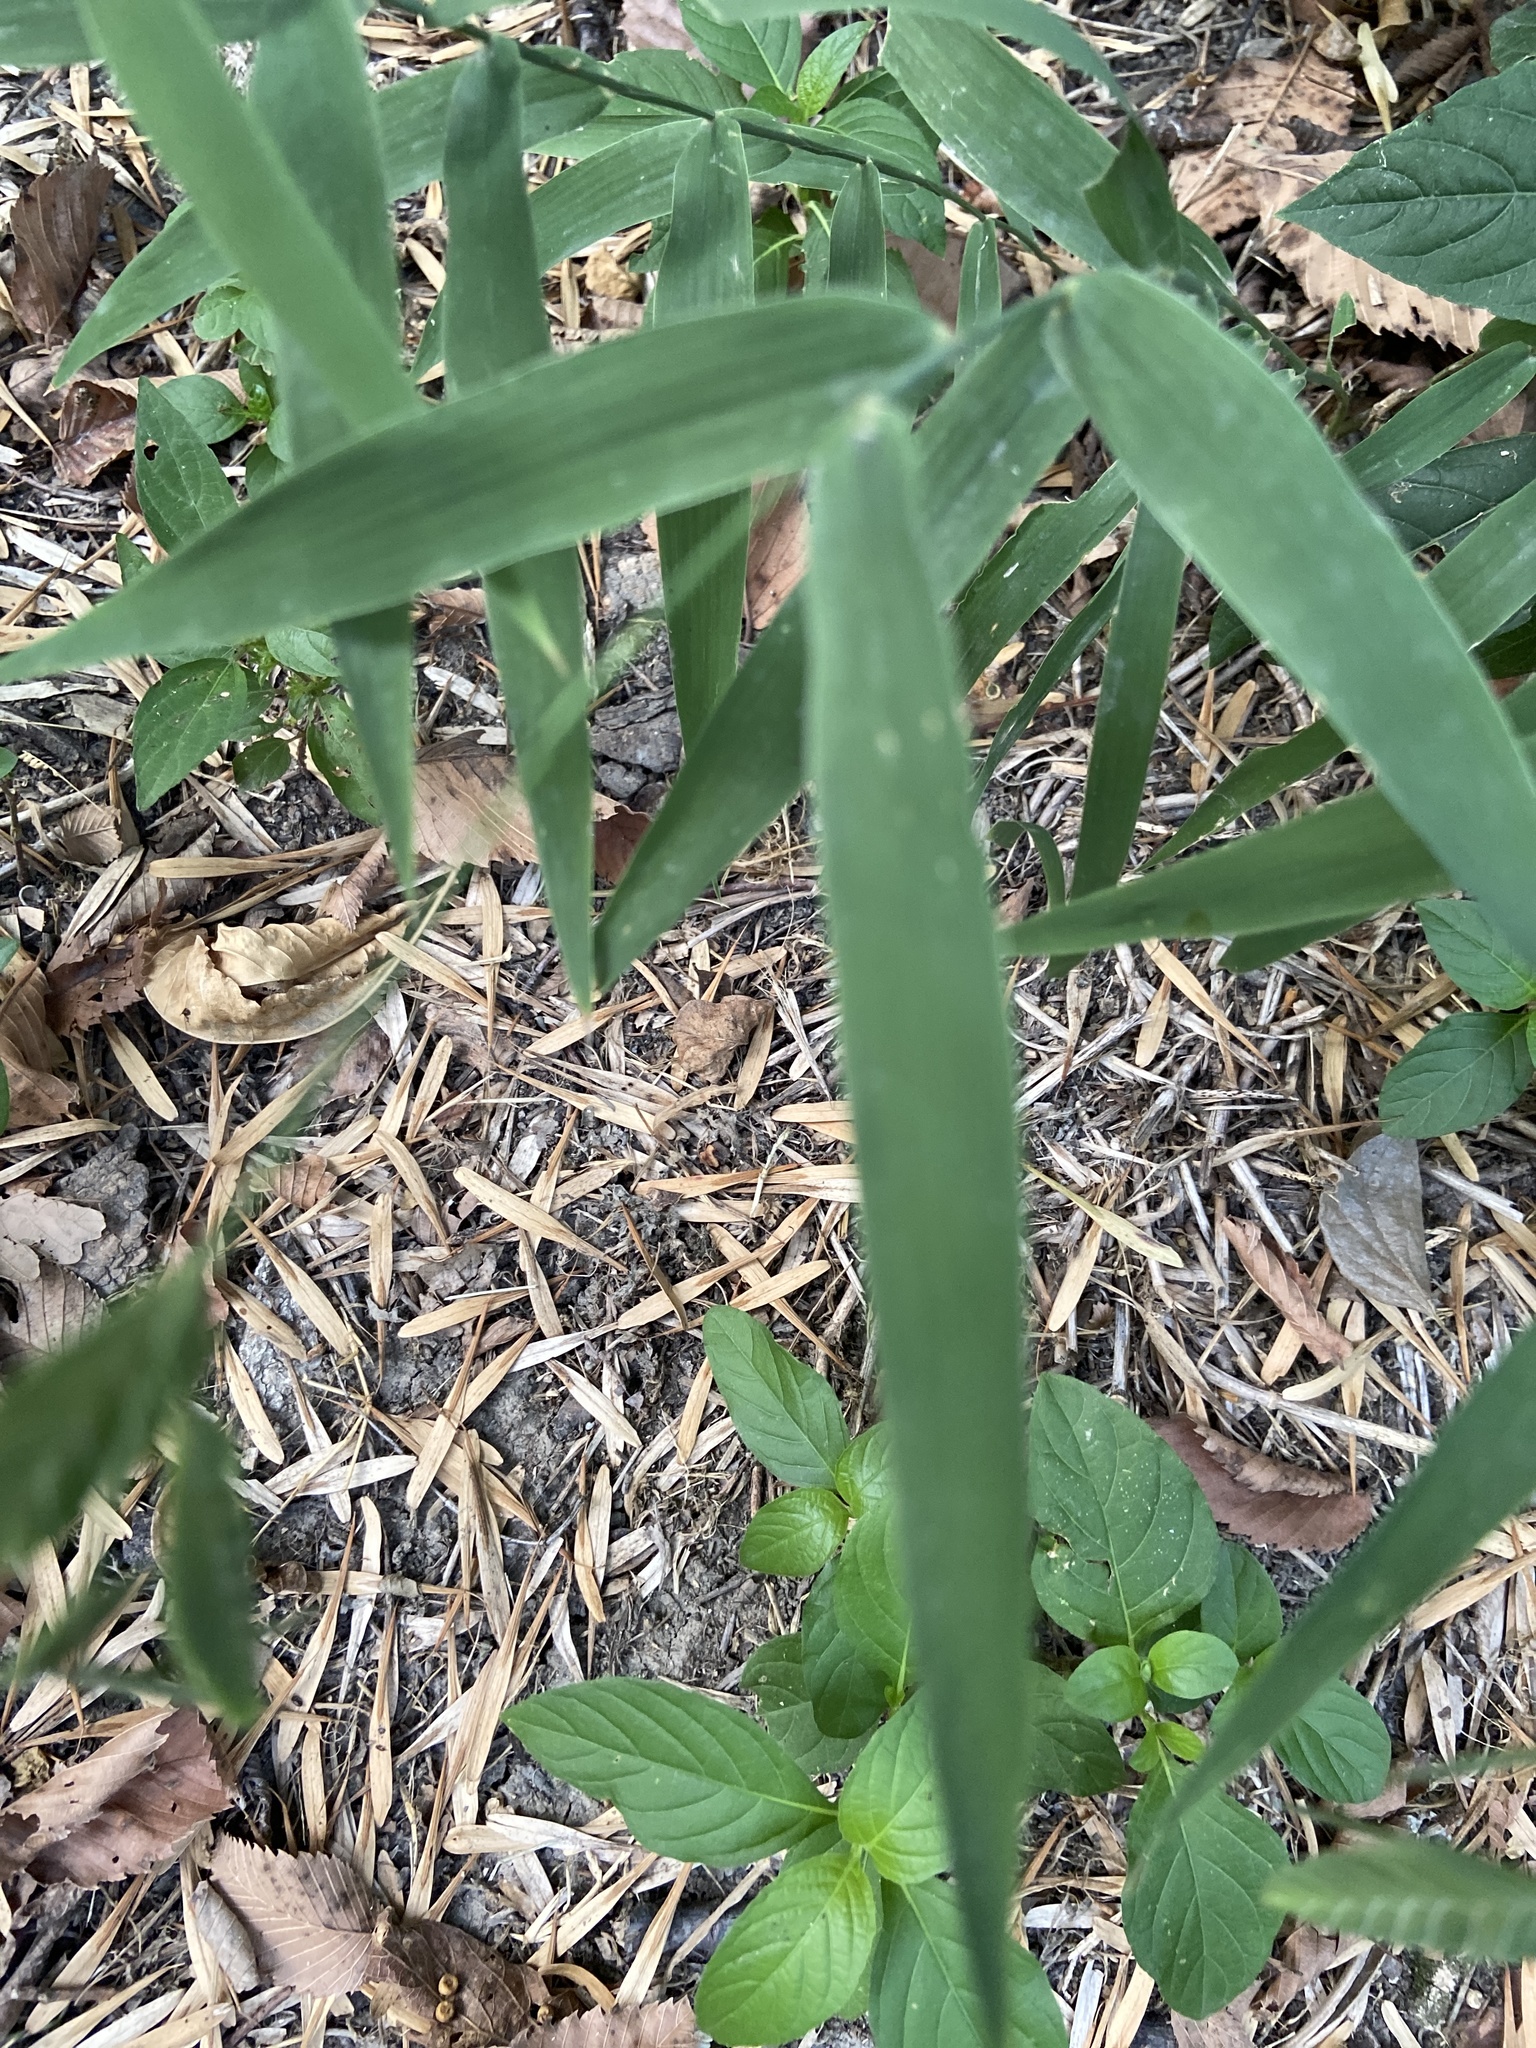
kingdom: Plantae
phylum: Tracheophyta
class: Liliopsida
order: Poales
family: Poaceae
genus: Chasmanthium
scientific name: Chasmanthium latifolium
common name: Broad-leaved chasmanthium
